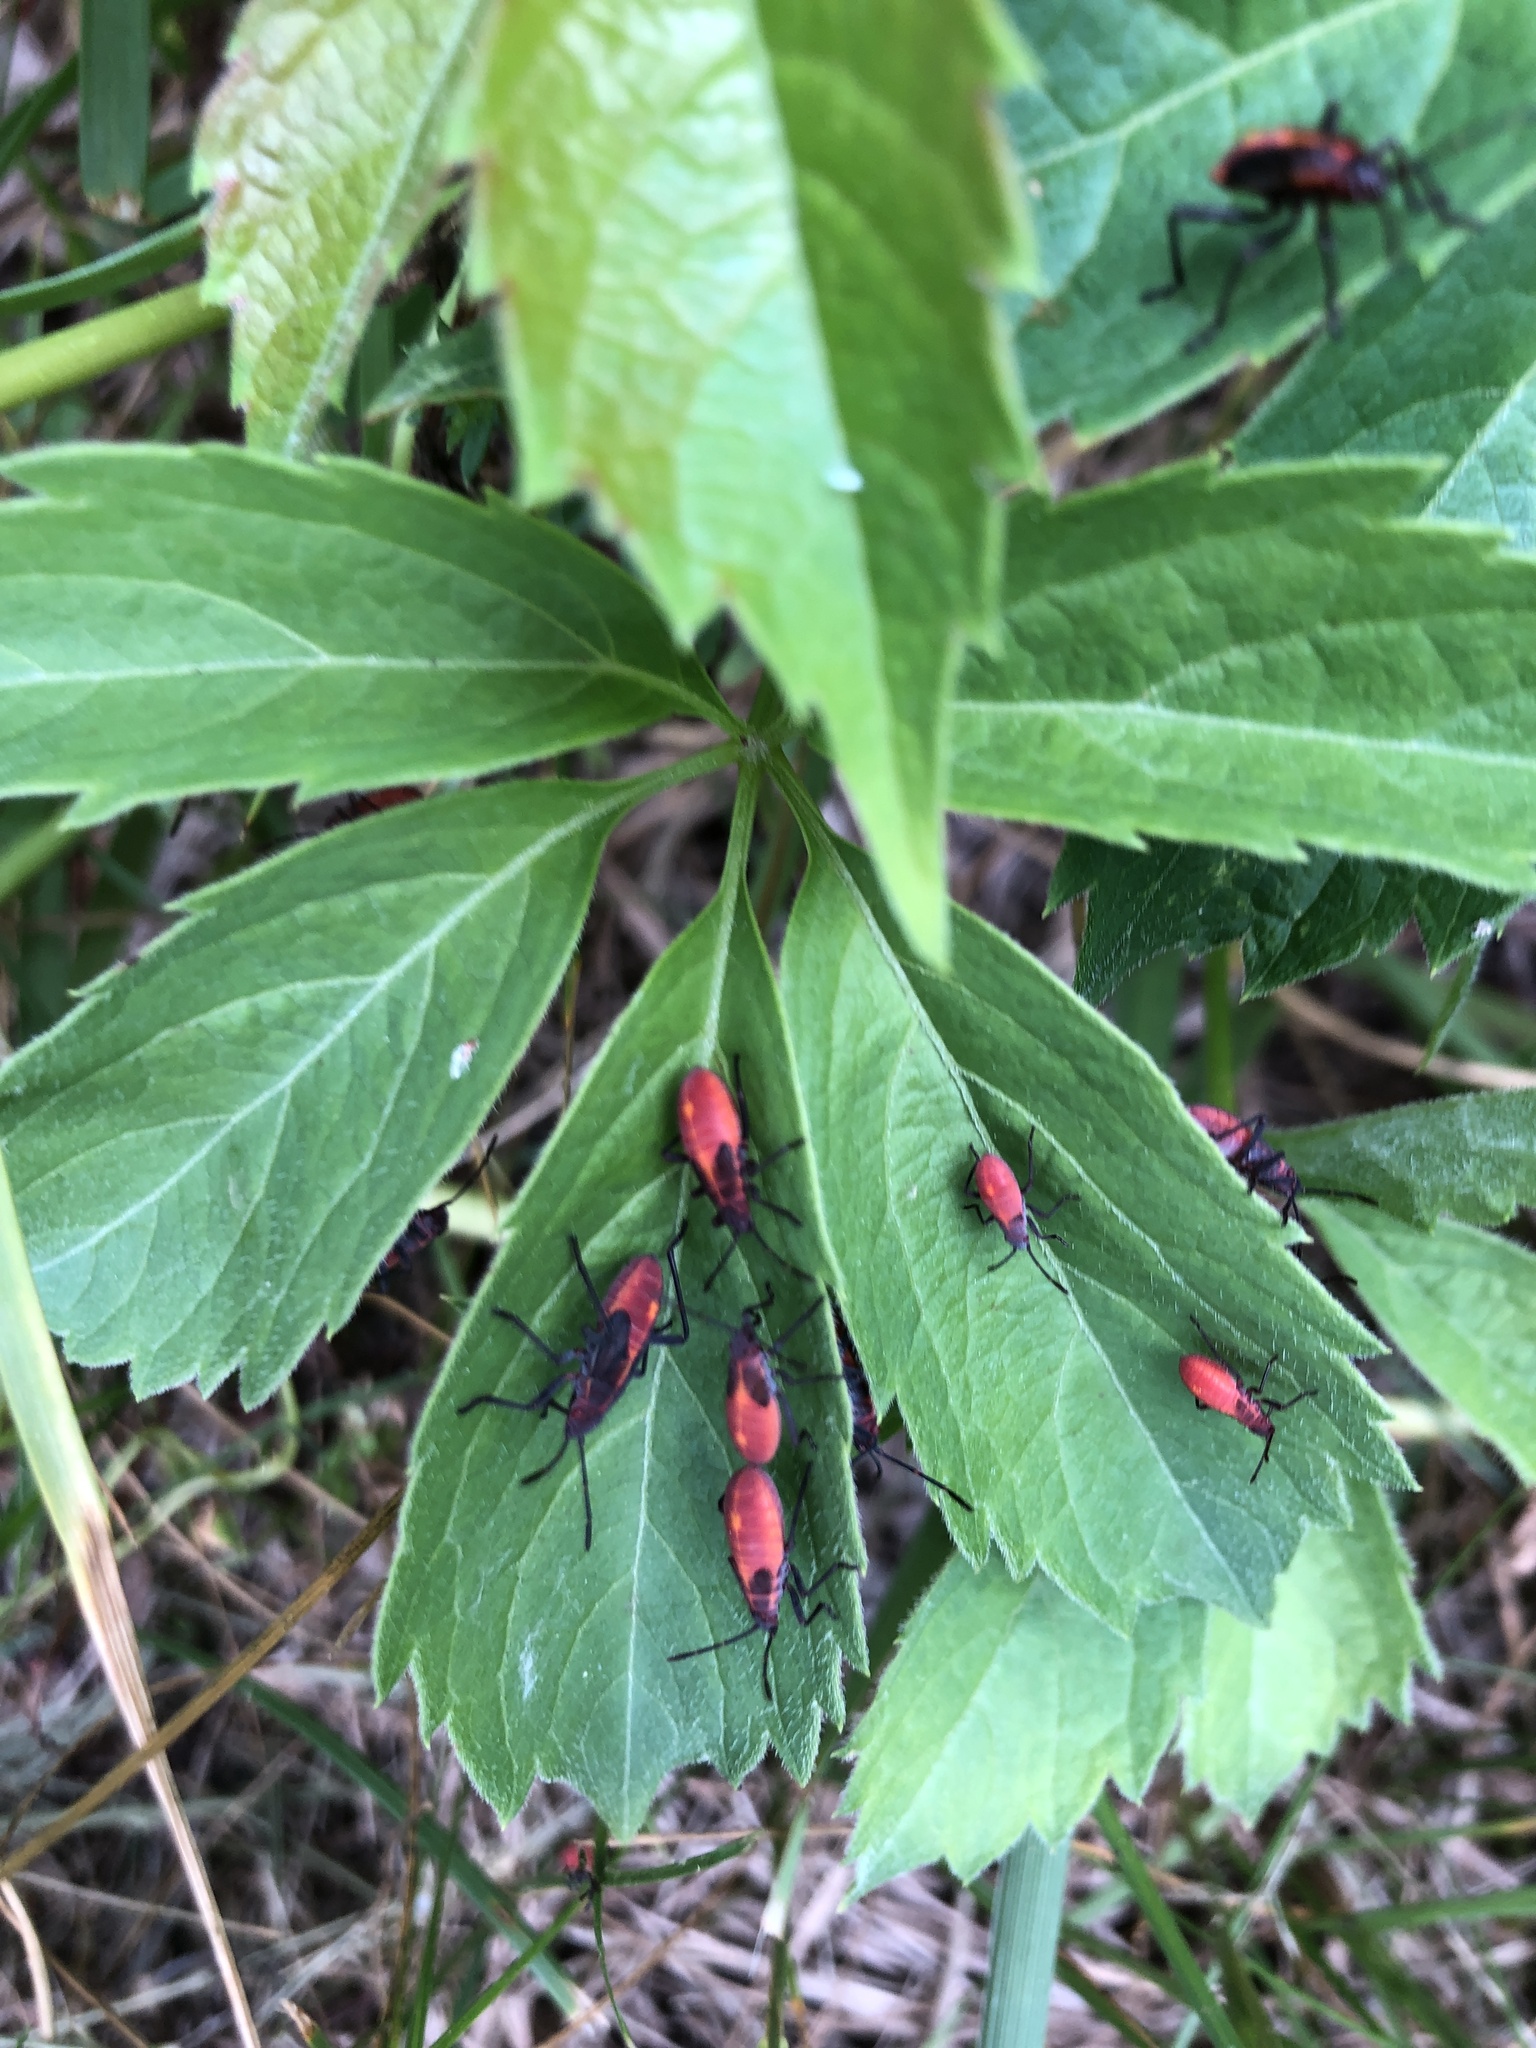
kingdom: Animalia
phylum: Arthropoda
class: Insecta
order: Hemiptera
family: Rhopalidae
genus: Boisea
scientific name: Boisea trivittata
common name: Boxelder bug
